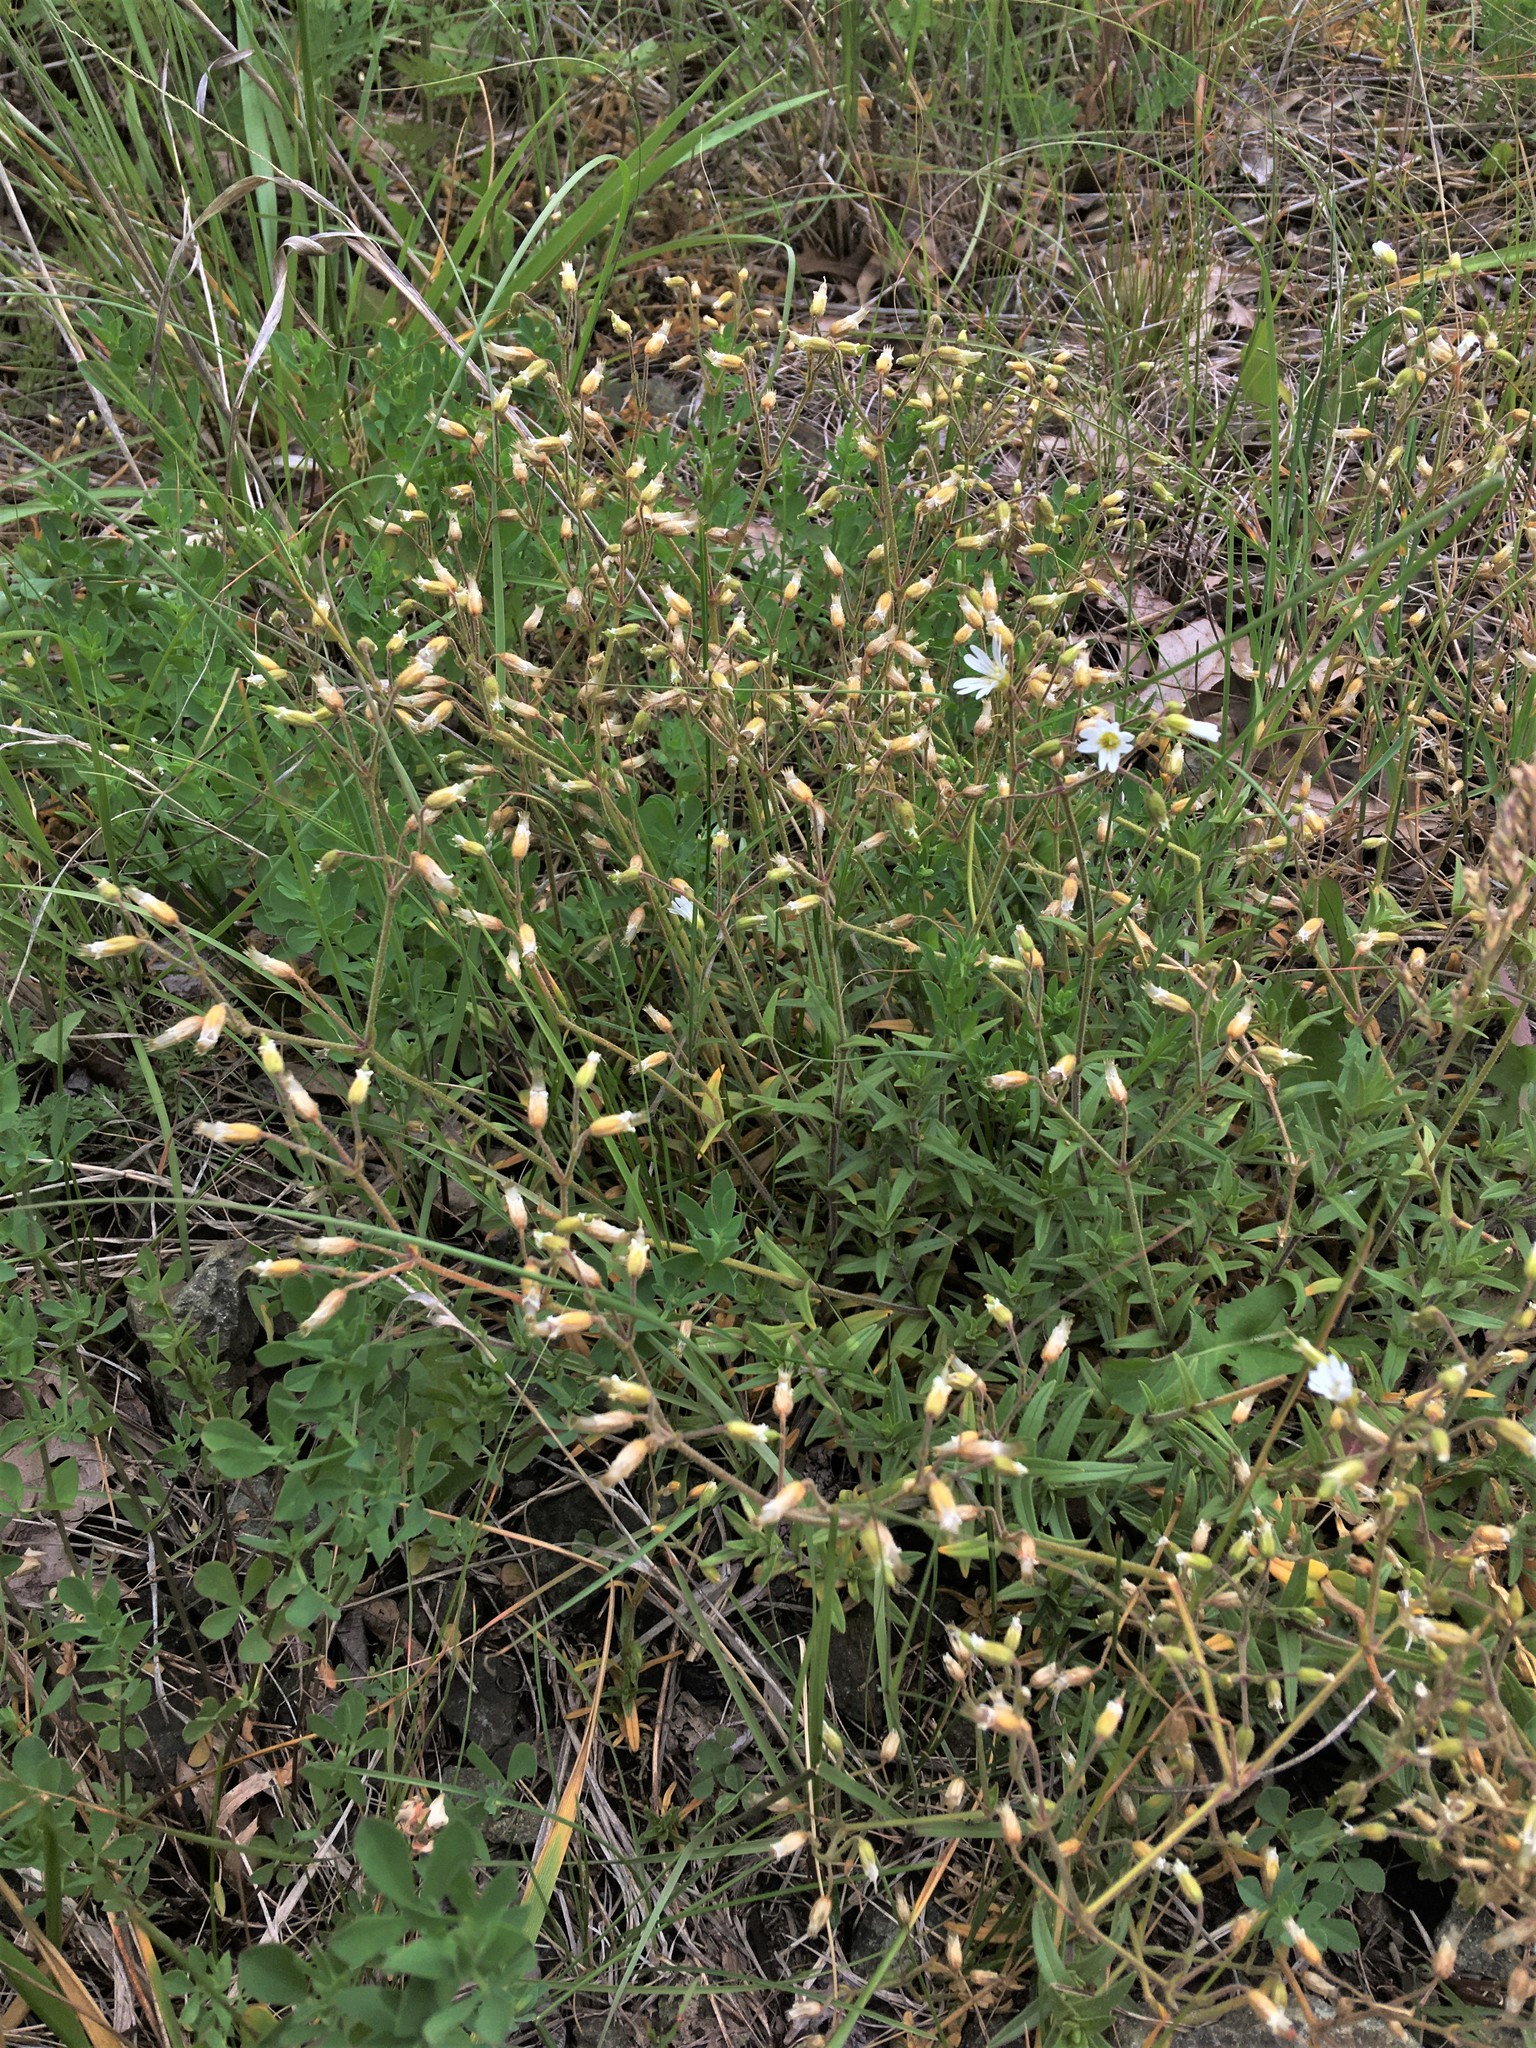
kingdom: Plantae
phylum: Tracheophyta
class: Magnoliopsida
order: Caryophyllales
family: Caryophyllaceae
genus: Cerastium
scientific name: Cerastium arvense
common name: Field mouse-ear
